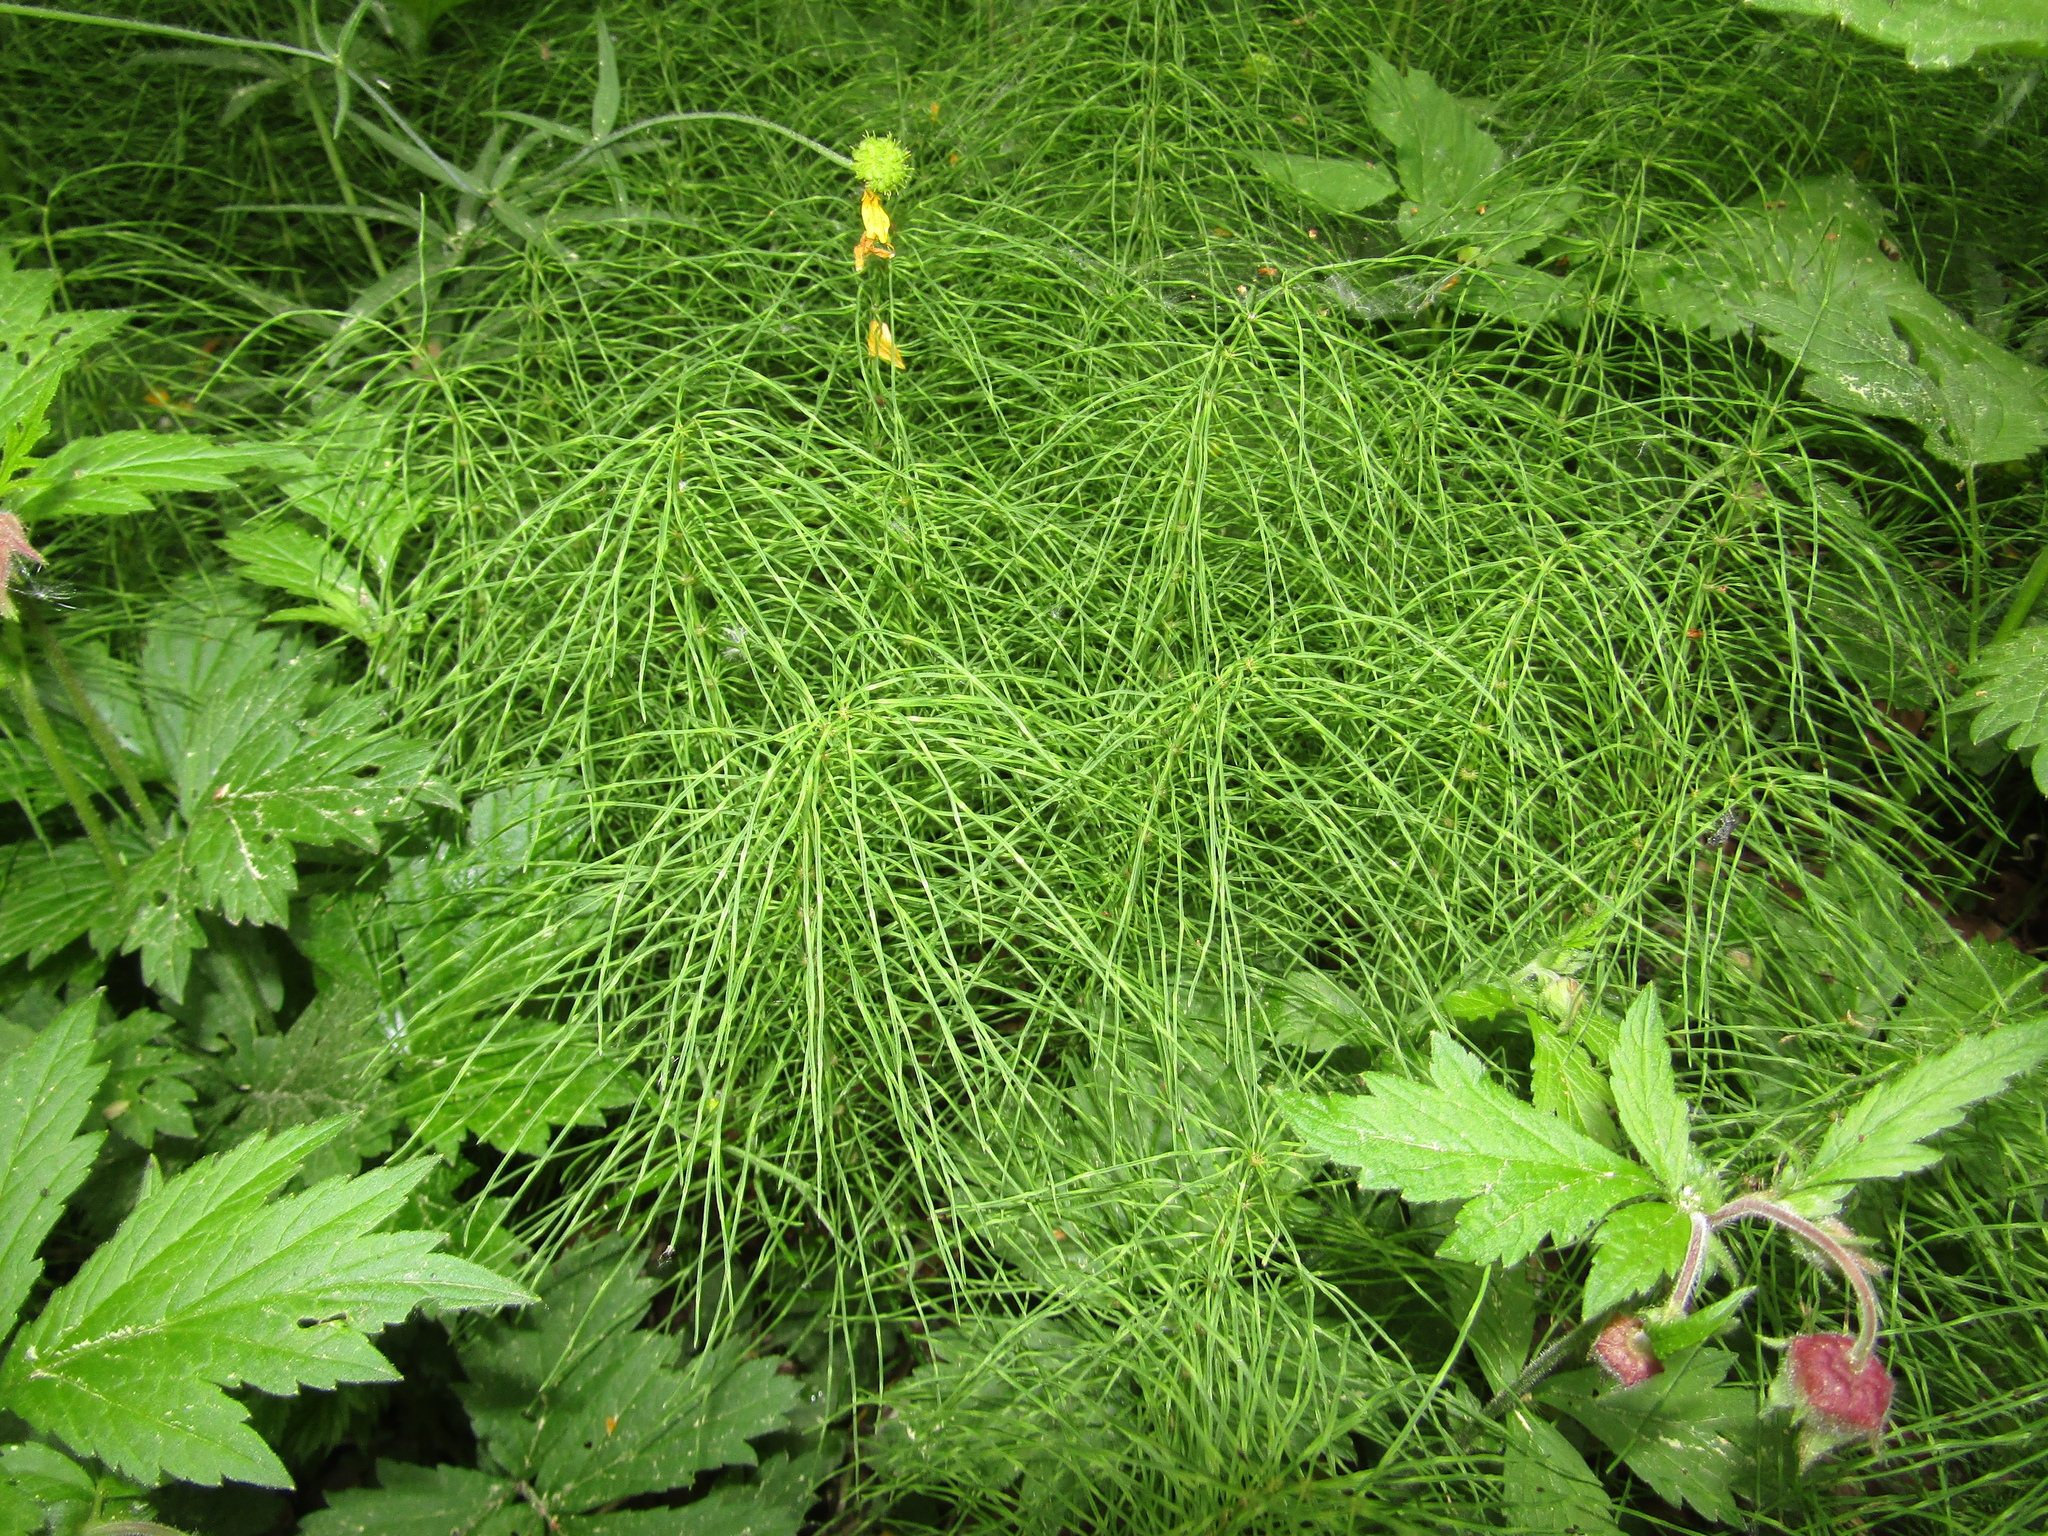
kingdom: Plantae
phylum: Tracheophyta
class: Polypodiopsida
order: Equisetales
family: Equisetaceae
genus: Equisetum
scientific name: Equisetum pratense
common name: Meadow horsetail
